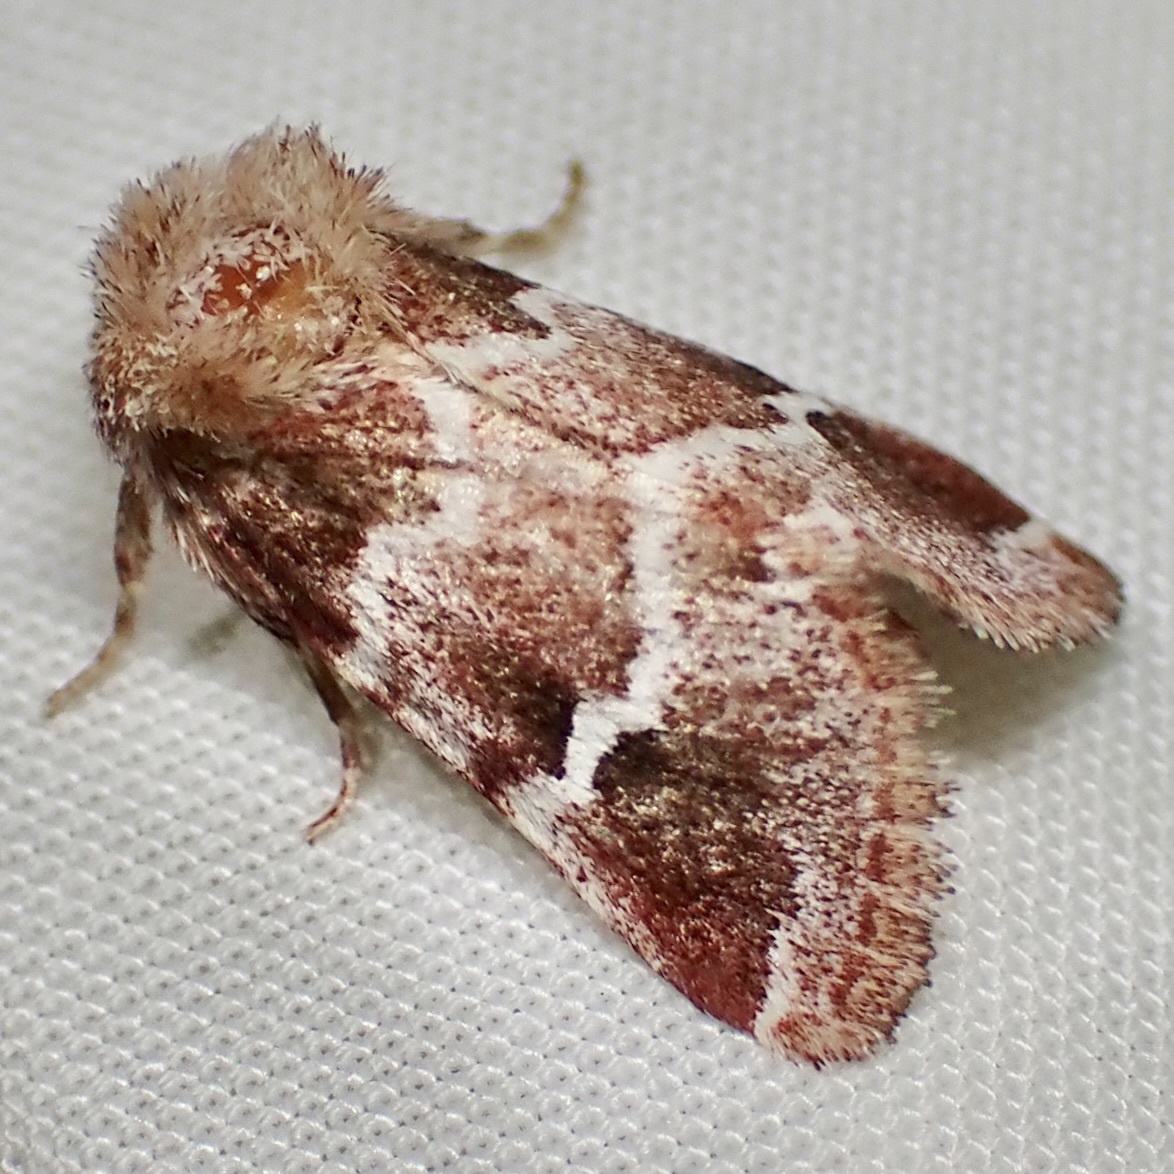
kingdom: Animalia
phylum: Arthropoda
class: Insecta
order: Lepidoptera
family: Noctuidae
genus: Nacopa
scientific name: Nacopa bistrigata
